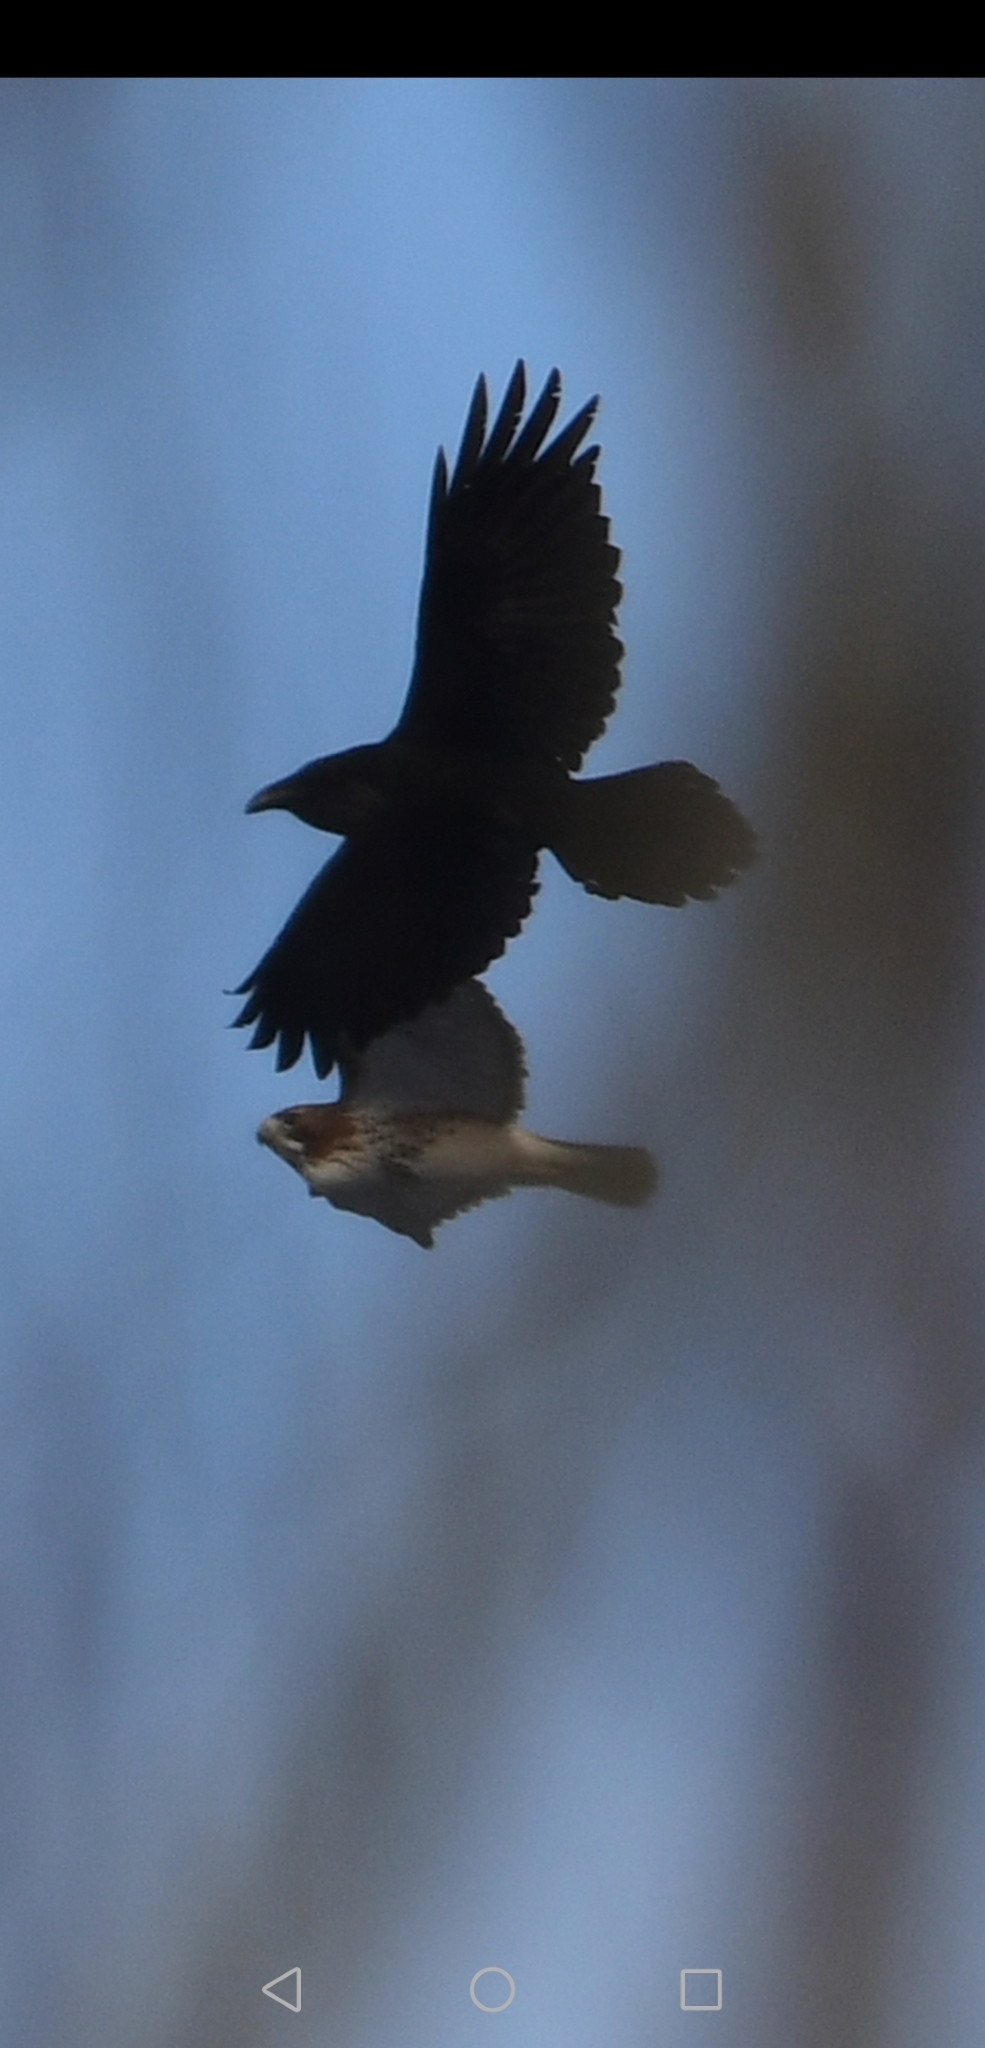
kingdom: Animalia
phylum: Chordata
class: Aves
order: Accipitriformes
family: Accipitridae
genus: Buteo
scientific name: Buteo jamaicensis
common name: Red-tailed hawk
